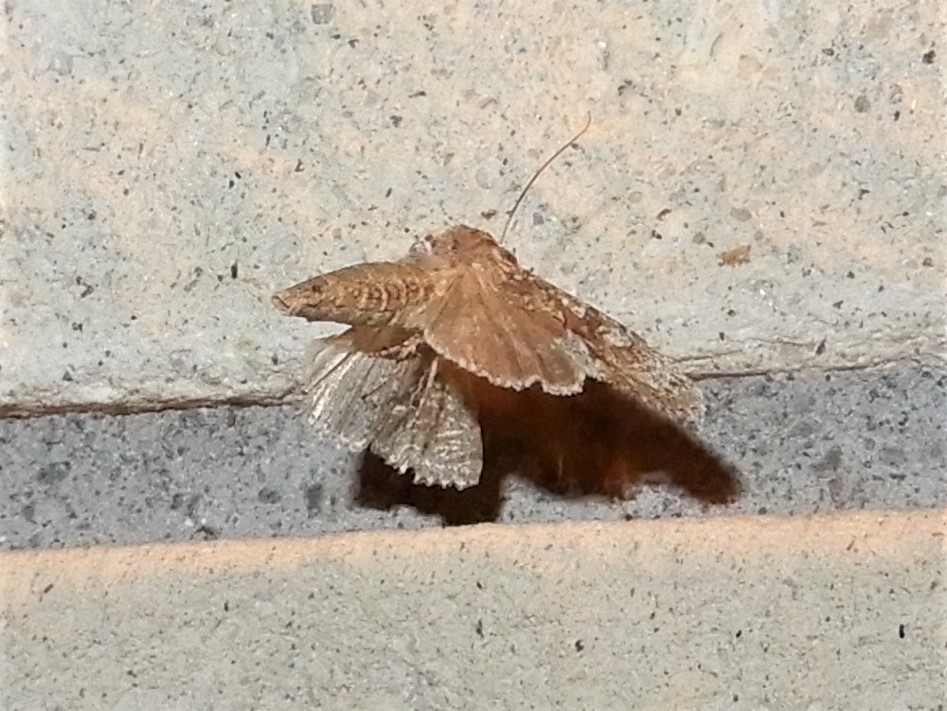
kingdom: Animalia
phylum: Arthropoda
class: Insecta
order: Lepidoptera
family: Noctuidae
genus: Ichneutica
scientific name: Ichneutica mutans
